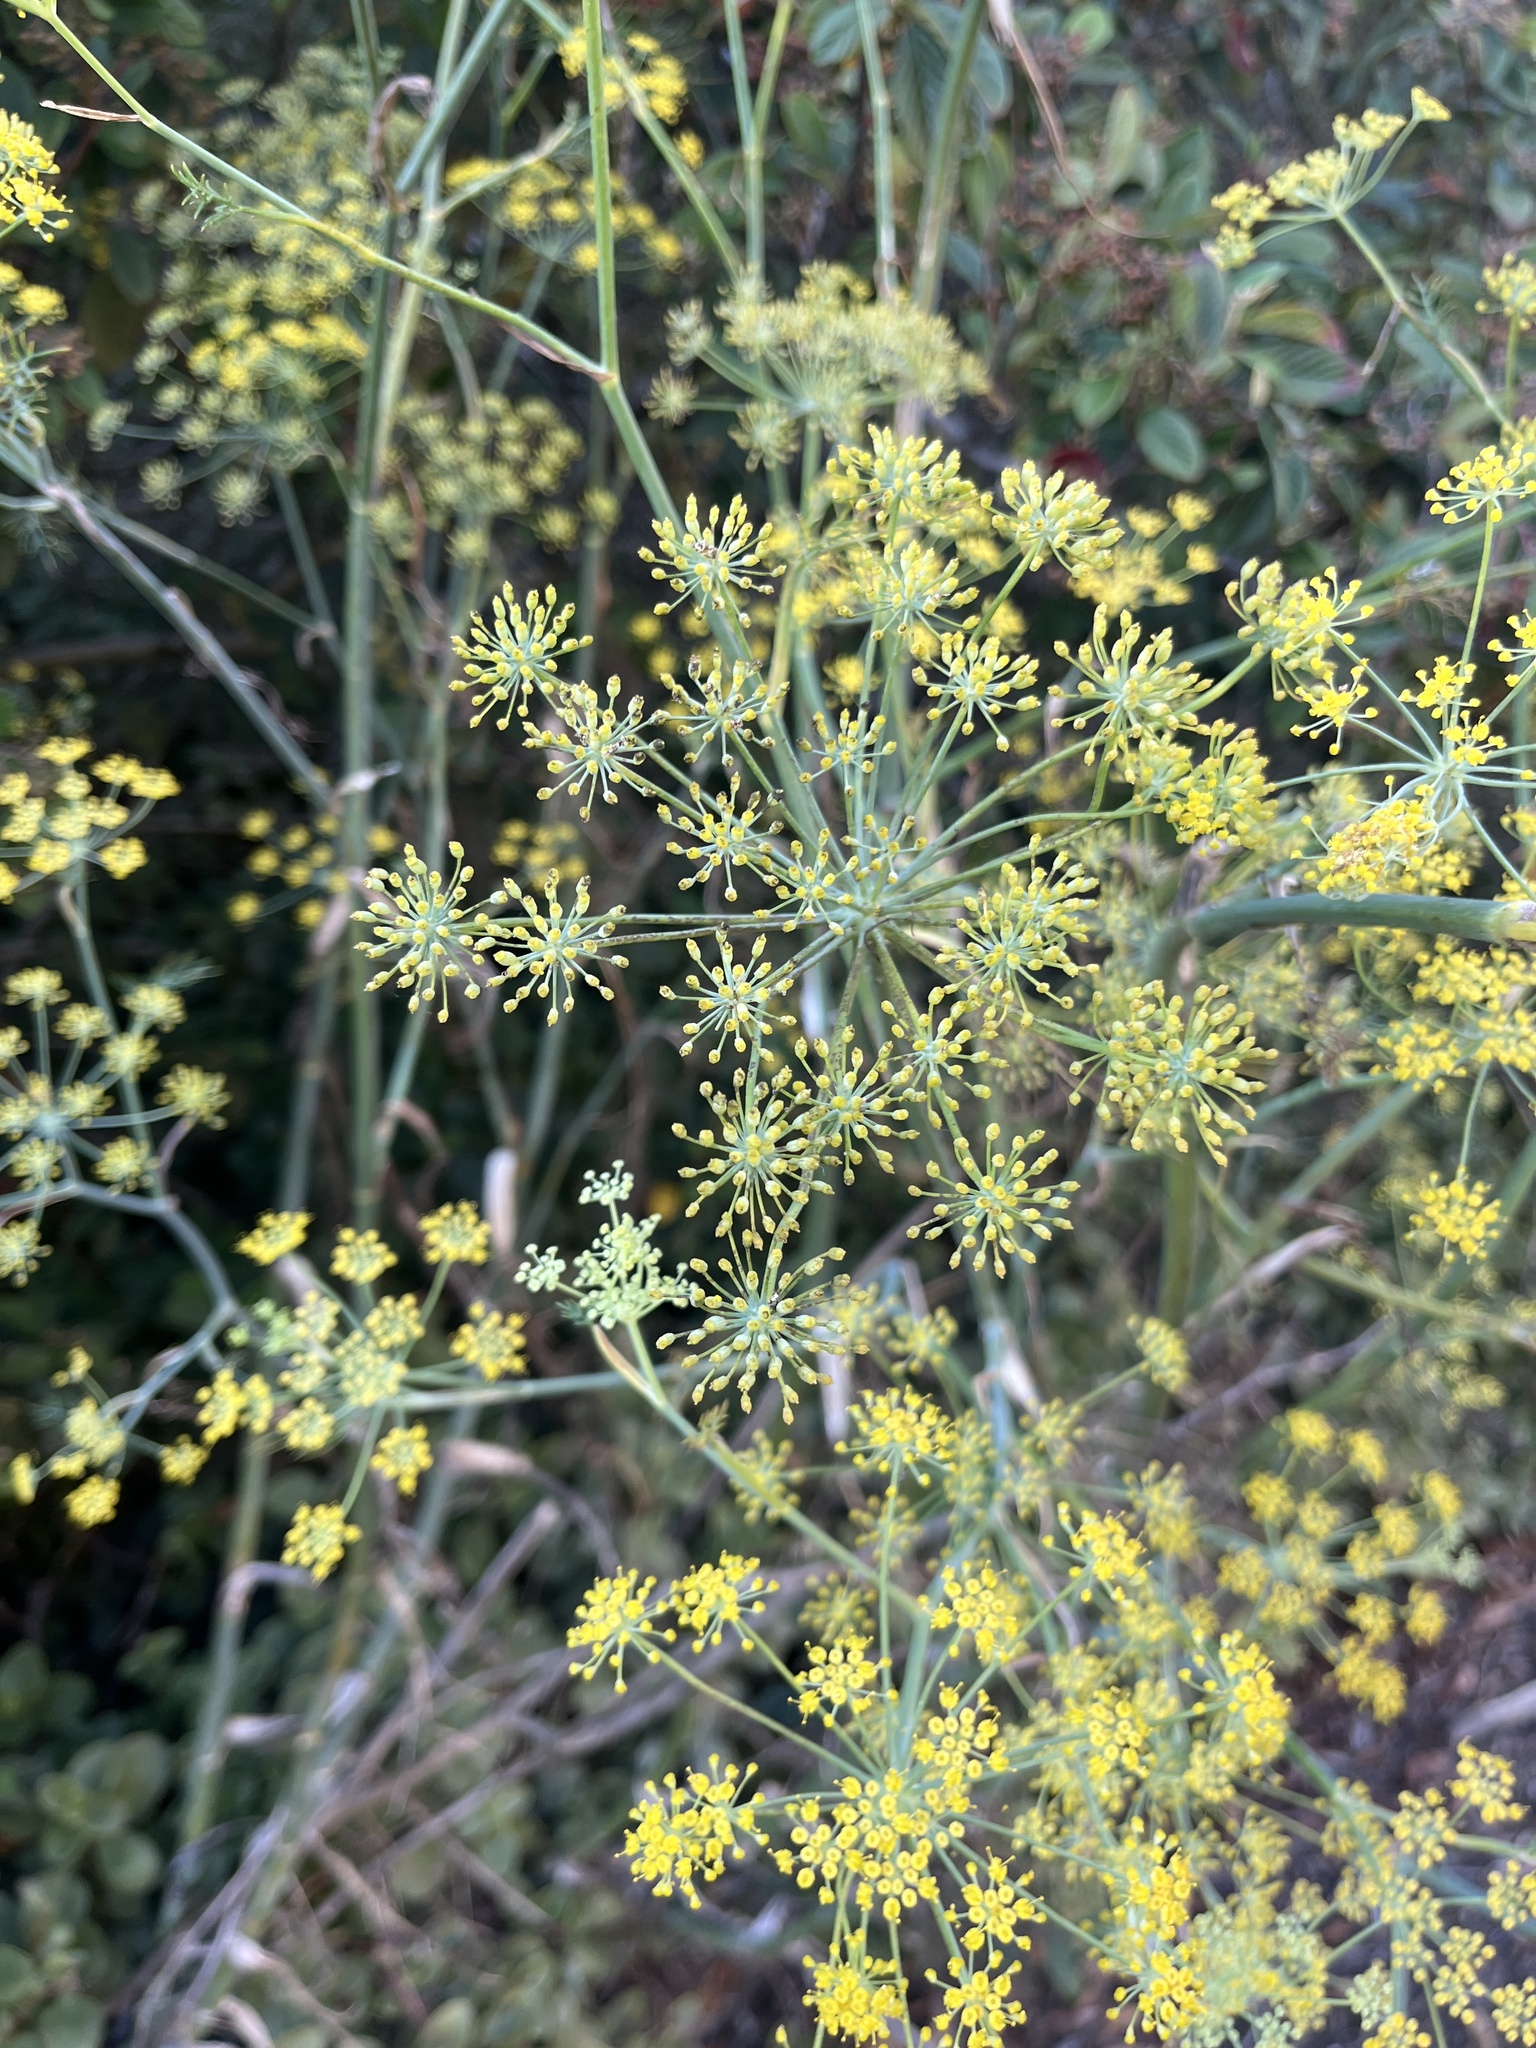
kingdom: Plantae
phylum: Tracheophyta
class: Magnoliopsida
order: Apiales
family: Apiaceae
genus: Foeniculum
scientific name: Foeniculum vulgare
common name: Fennel
